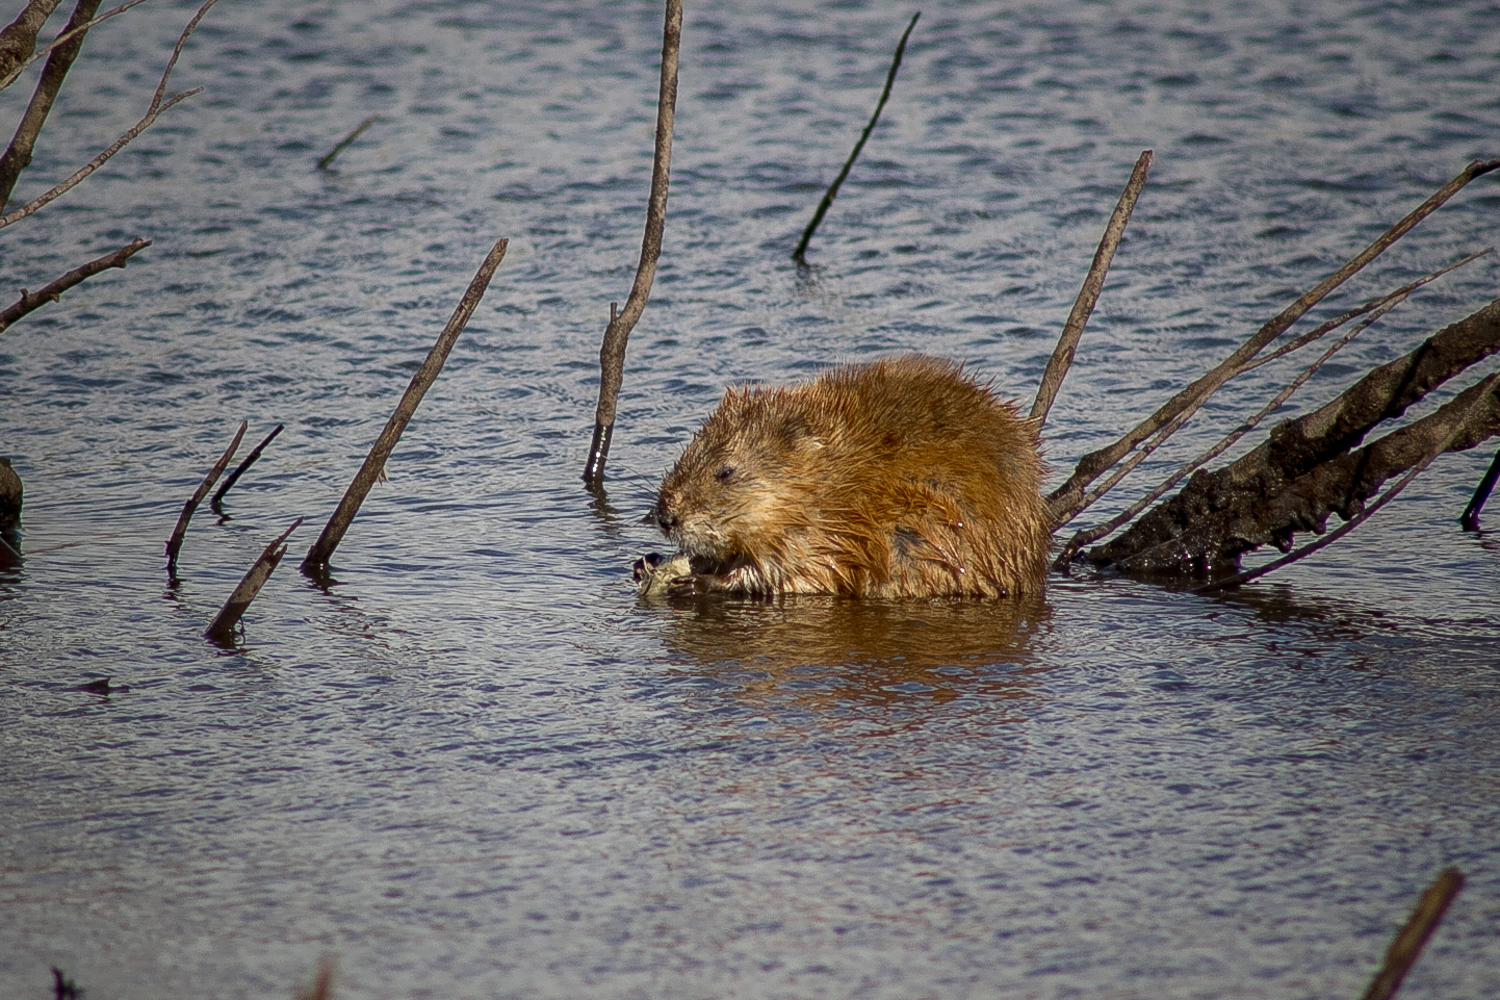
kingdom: Animalia
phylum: Chordata
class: Mammalia
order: Rodentia
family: Cricetidae
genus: Ondatra
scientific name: Ondatra zibethicus
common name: Muskrat
